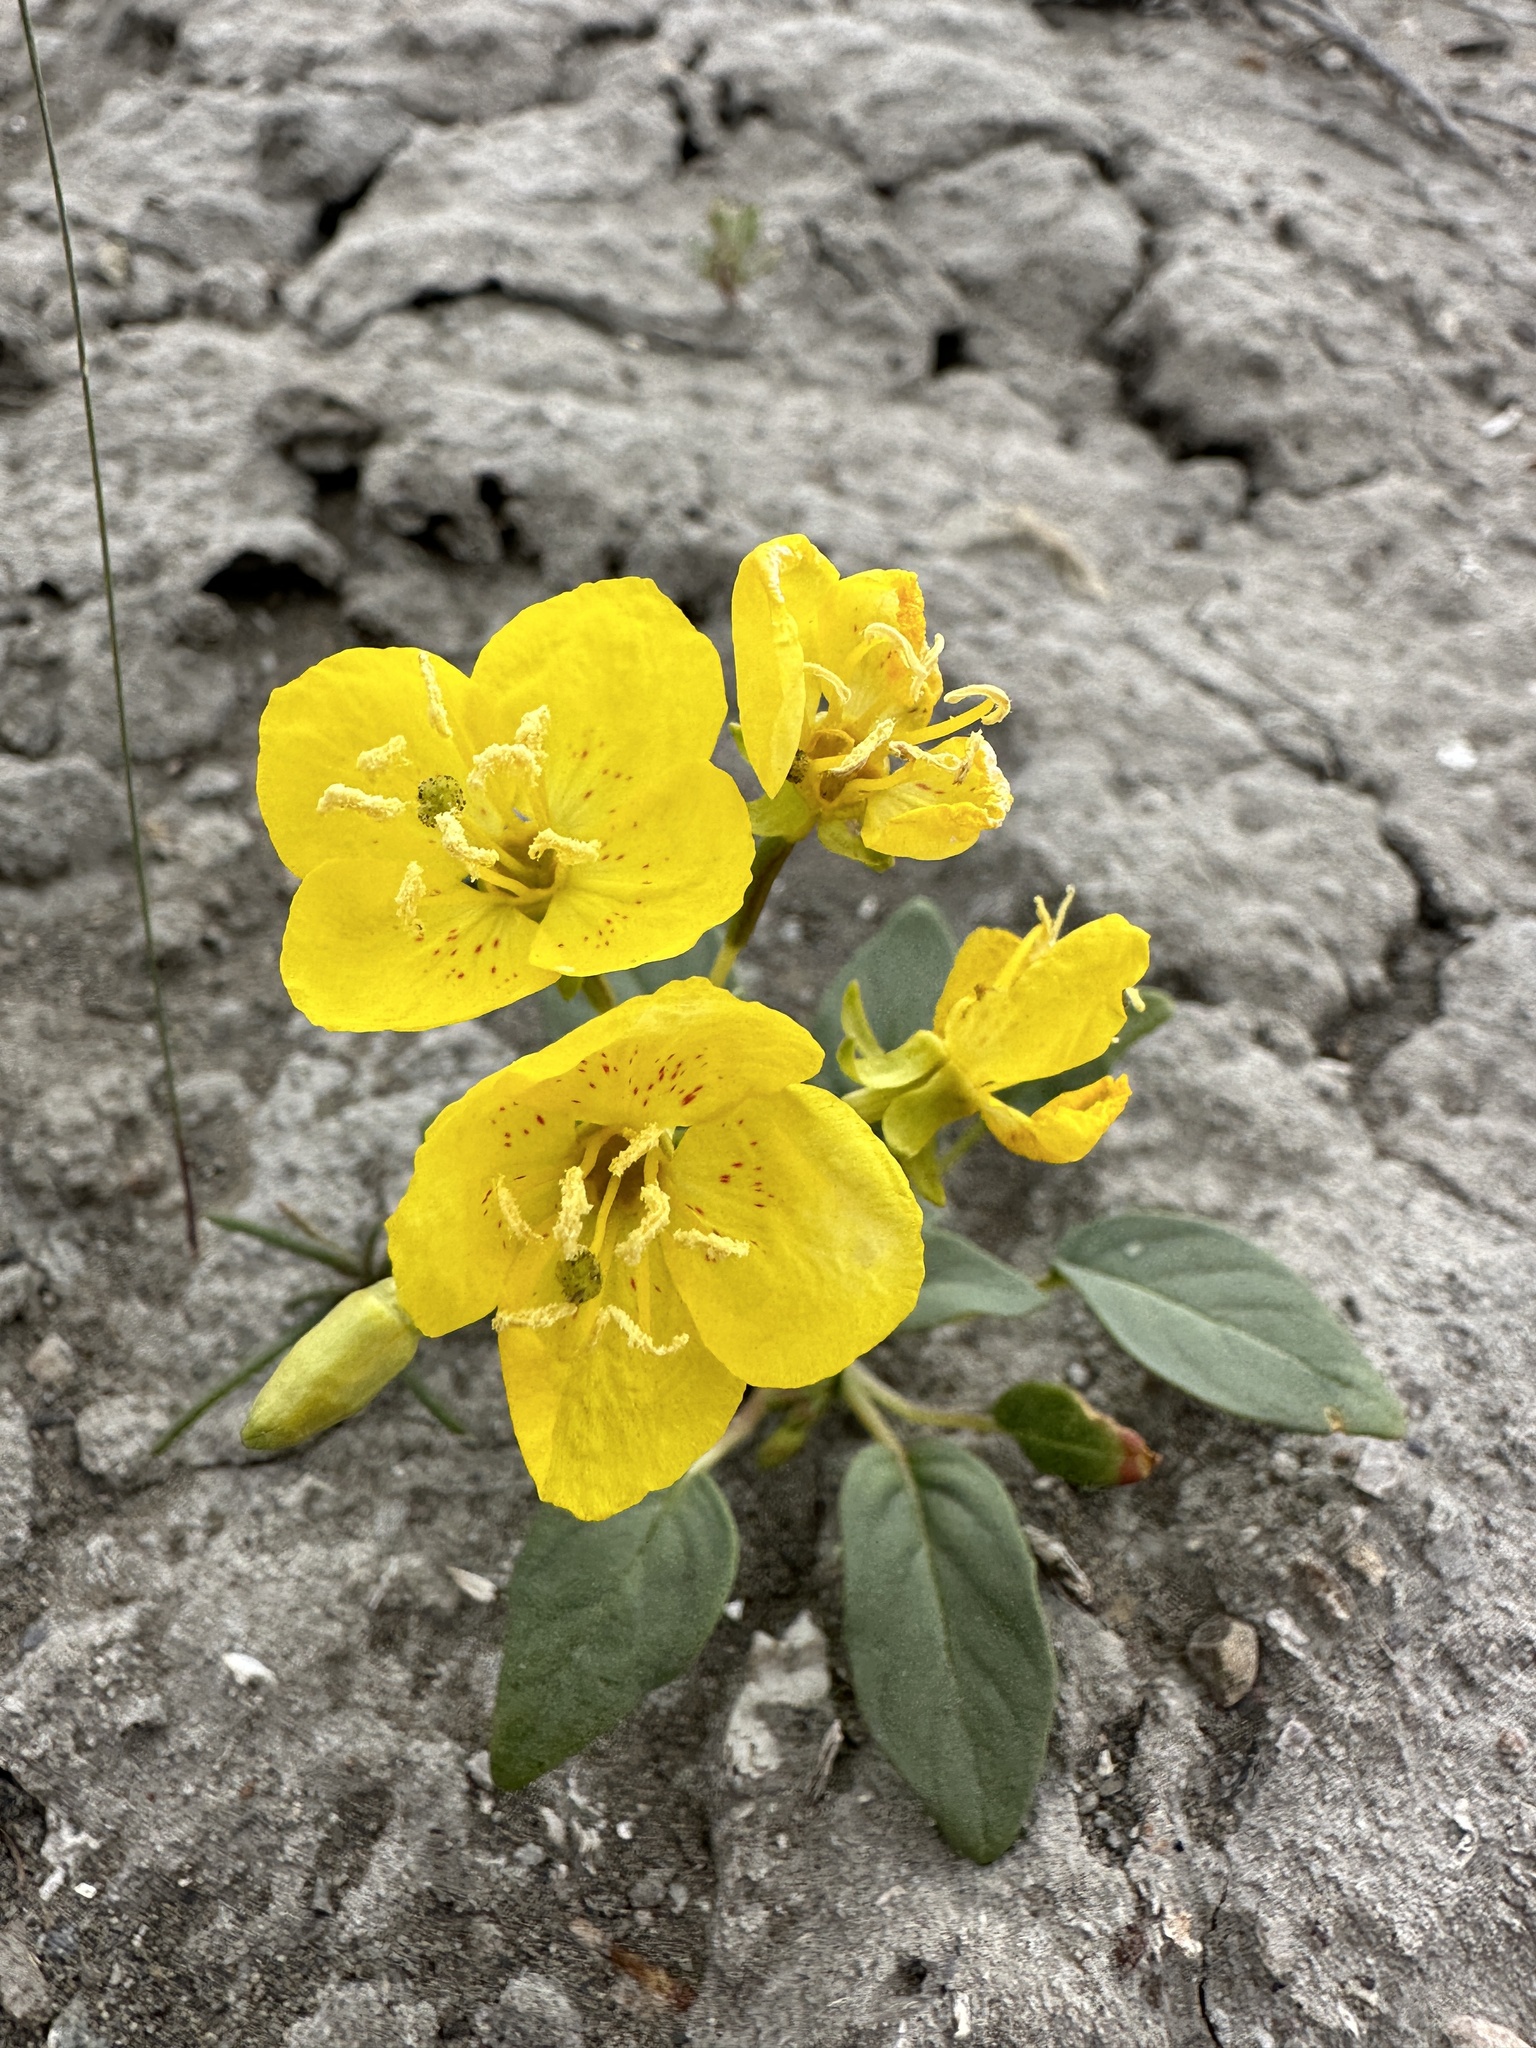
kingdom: Plantae
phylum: Tracheophyta
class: Magnoliopsida
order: Myrtales
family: Onagraceae
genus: Chylismia
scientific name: Chylismia eastwoodiae
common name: Grand junction camissonia
